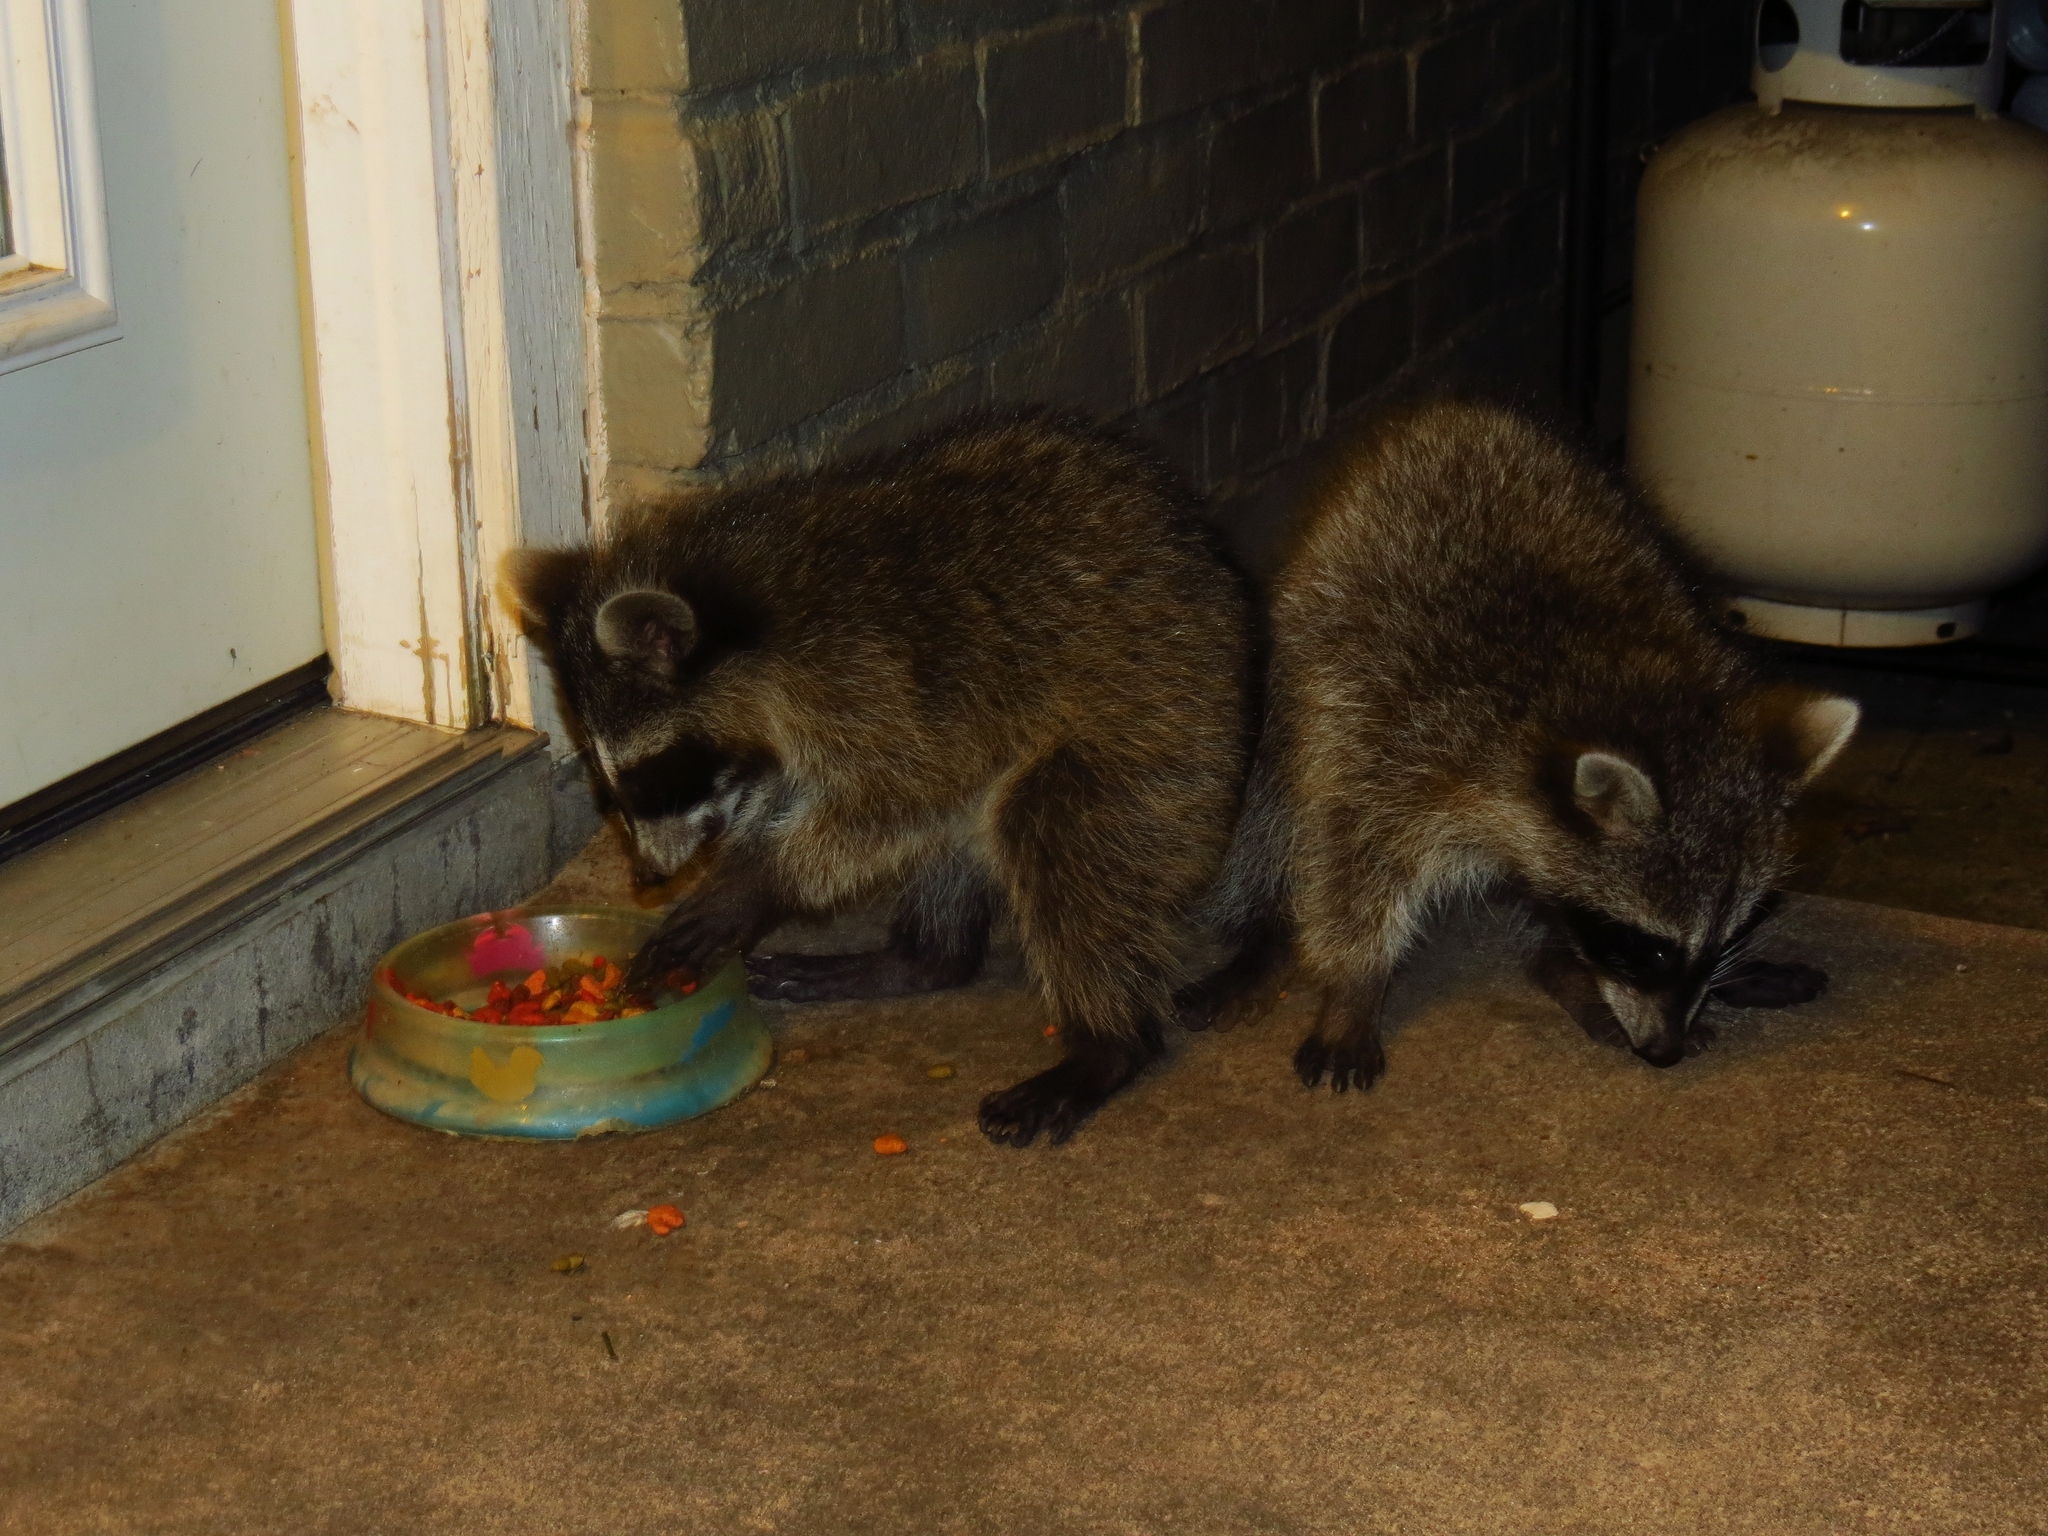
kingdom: Animalia
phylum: Chordata
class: Mammalia
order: Carnivora
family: Procyonidae
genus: Procyon
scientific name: Procyon lotor
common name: Raccoon
